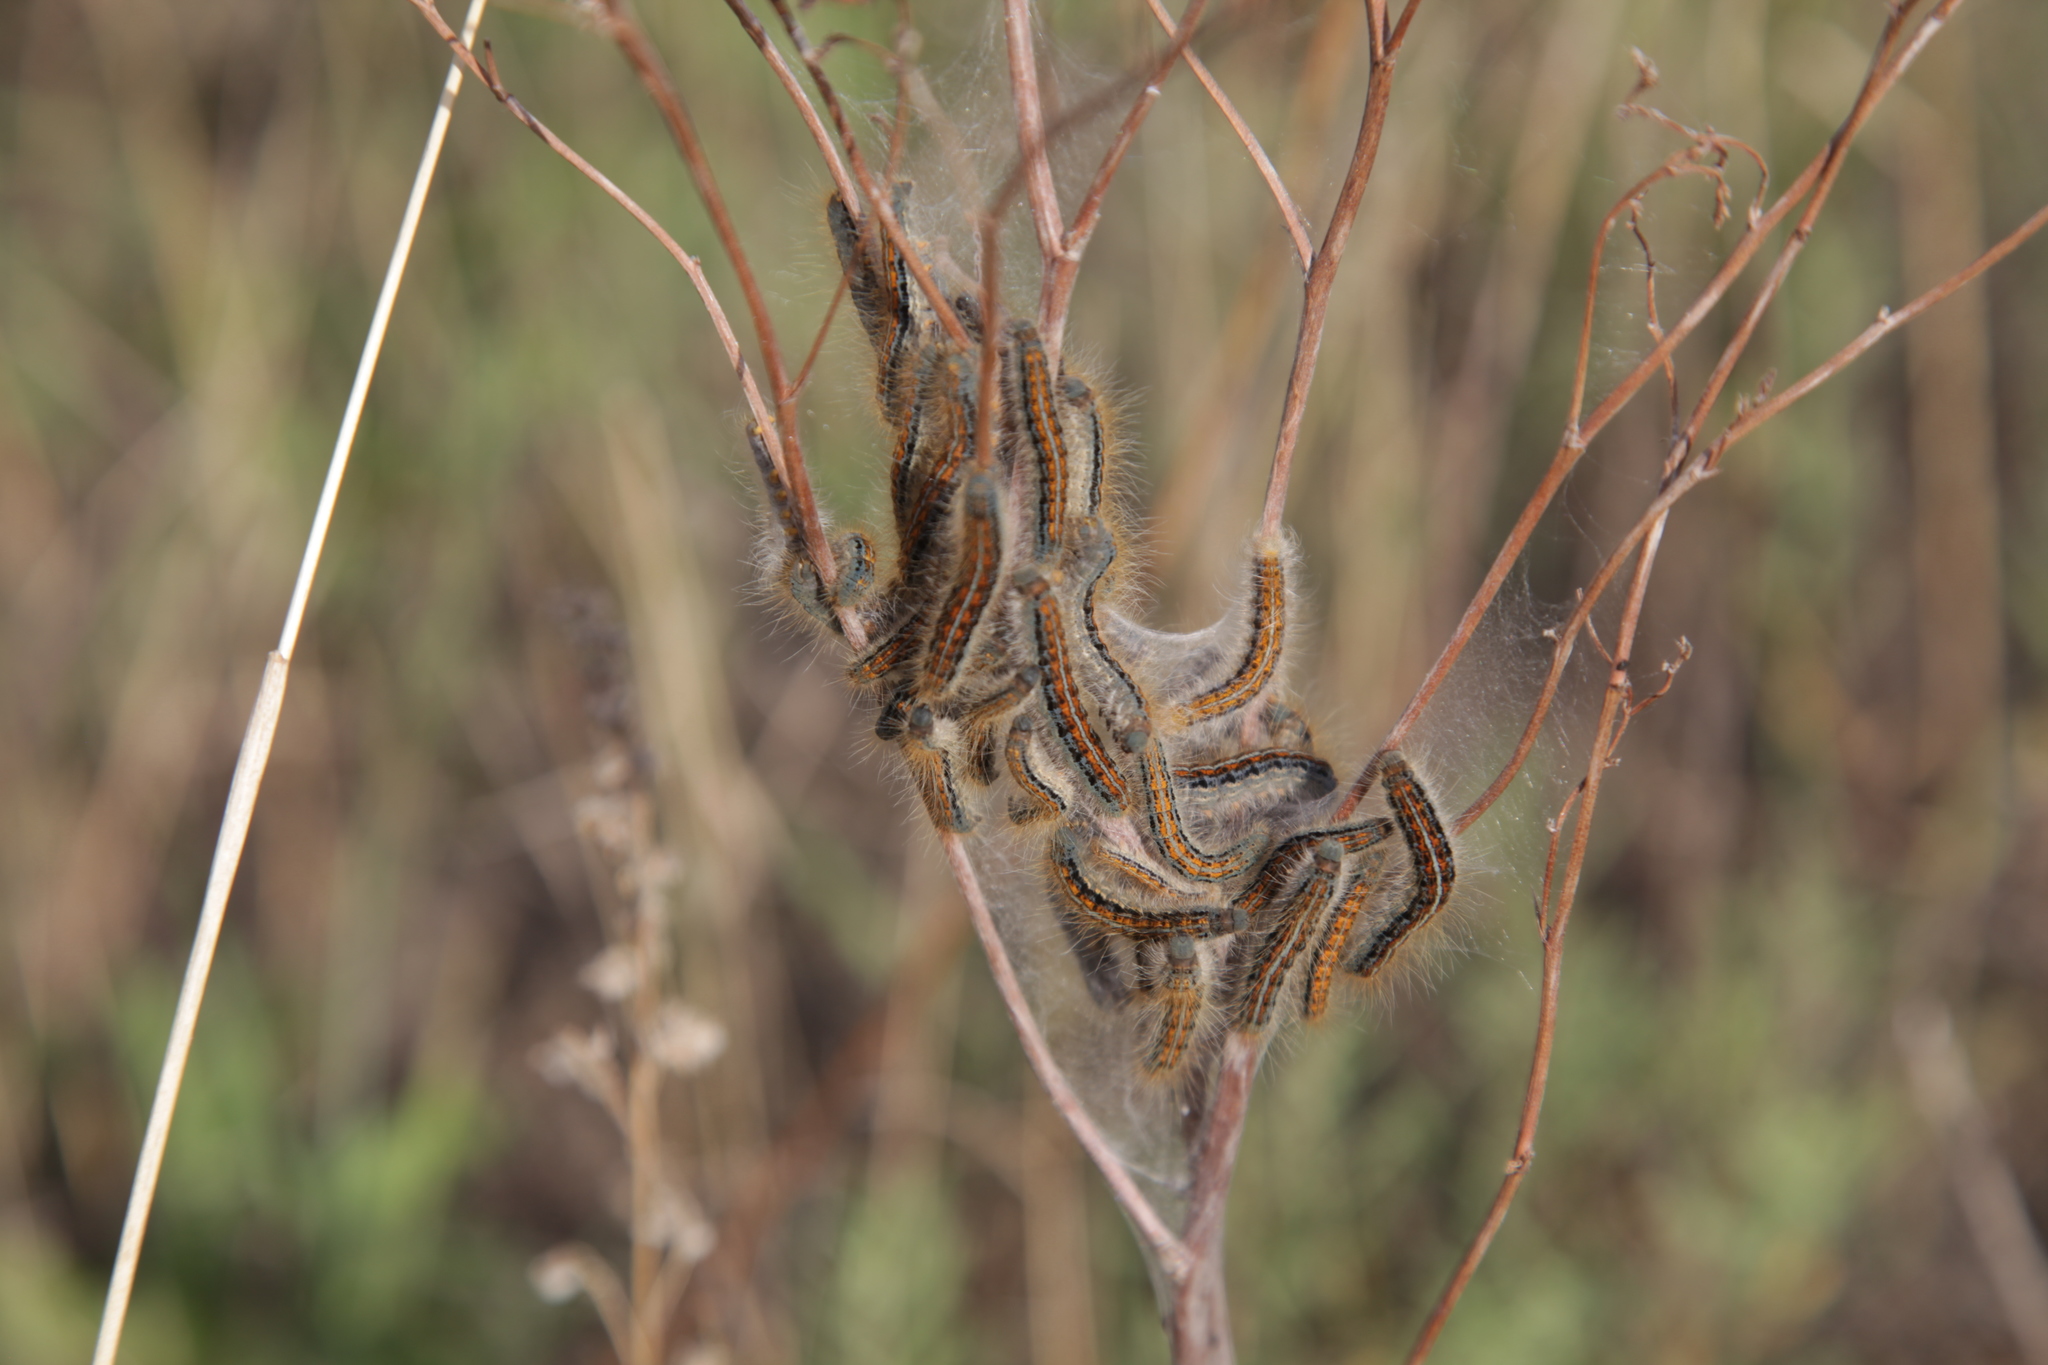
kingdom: Animalia
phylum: Arthropoda
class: Insecta
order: Lepidoptera
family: Lasiocampidae
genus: Malacosoma
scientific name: Malacosoma castrense
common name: Ground lackey
